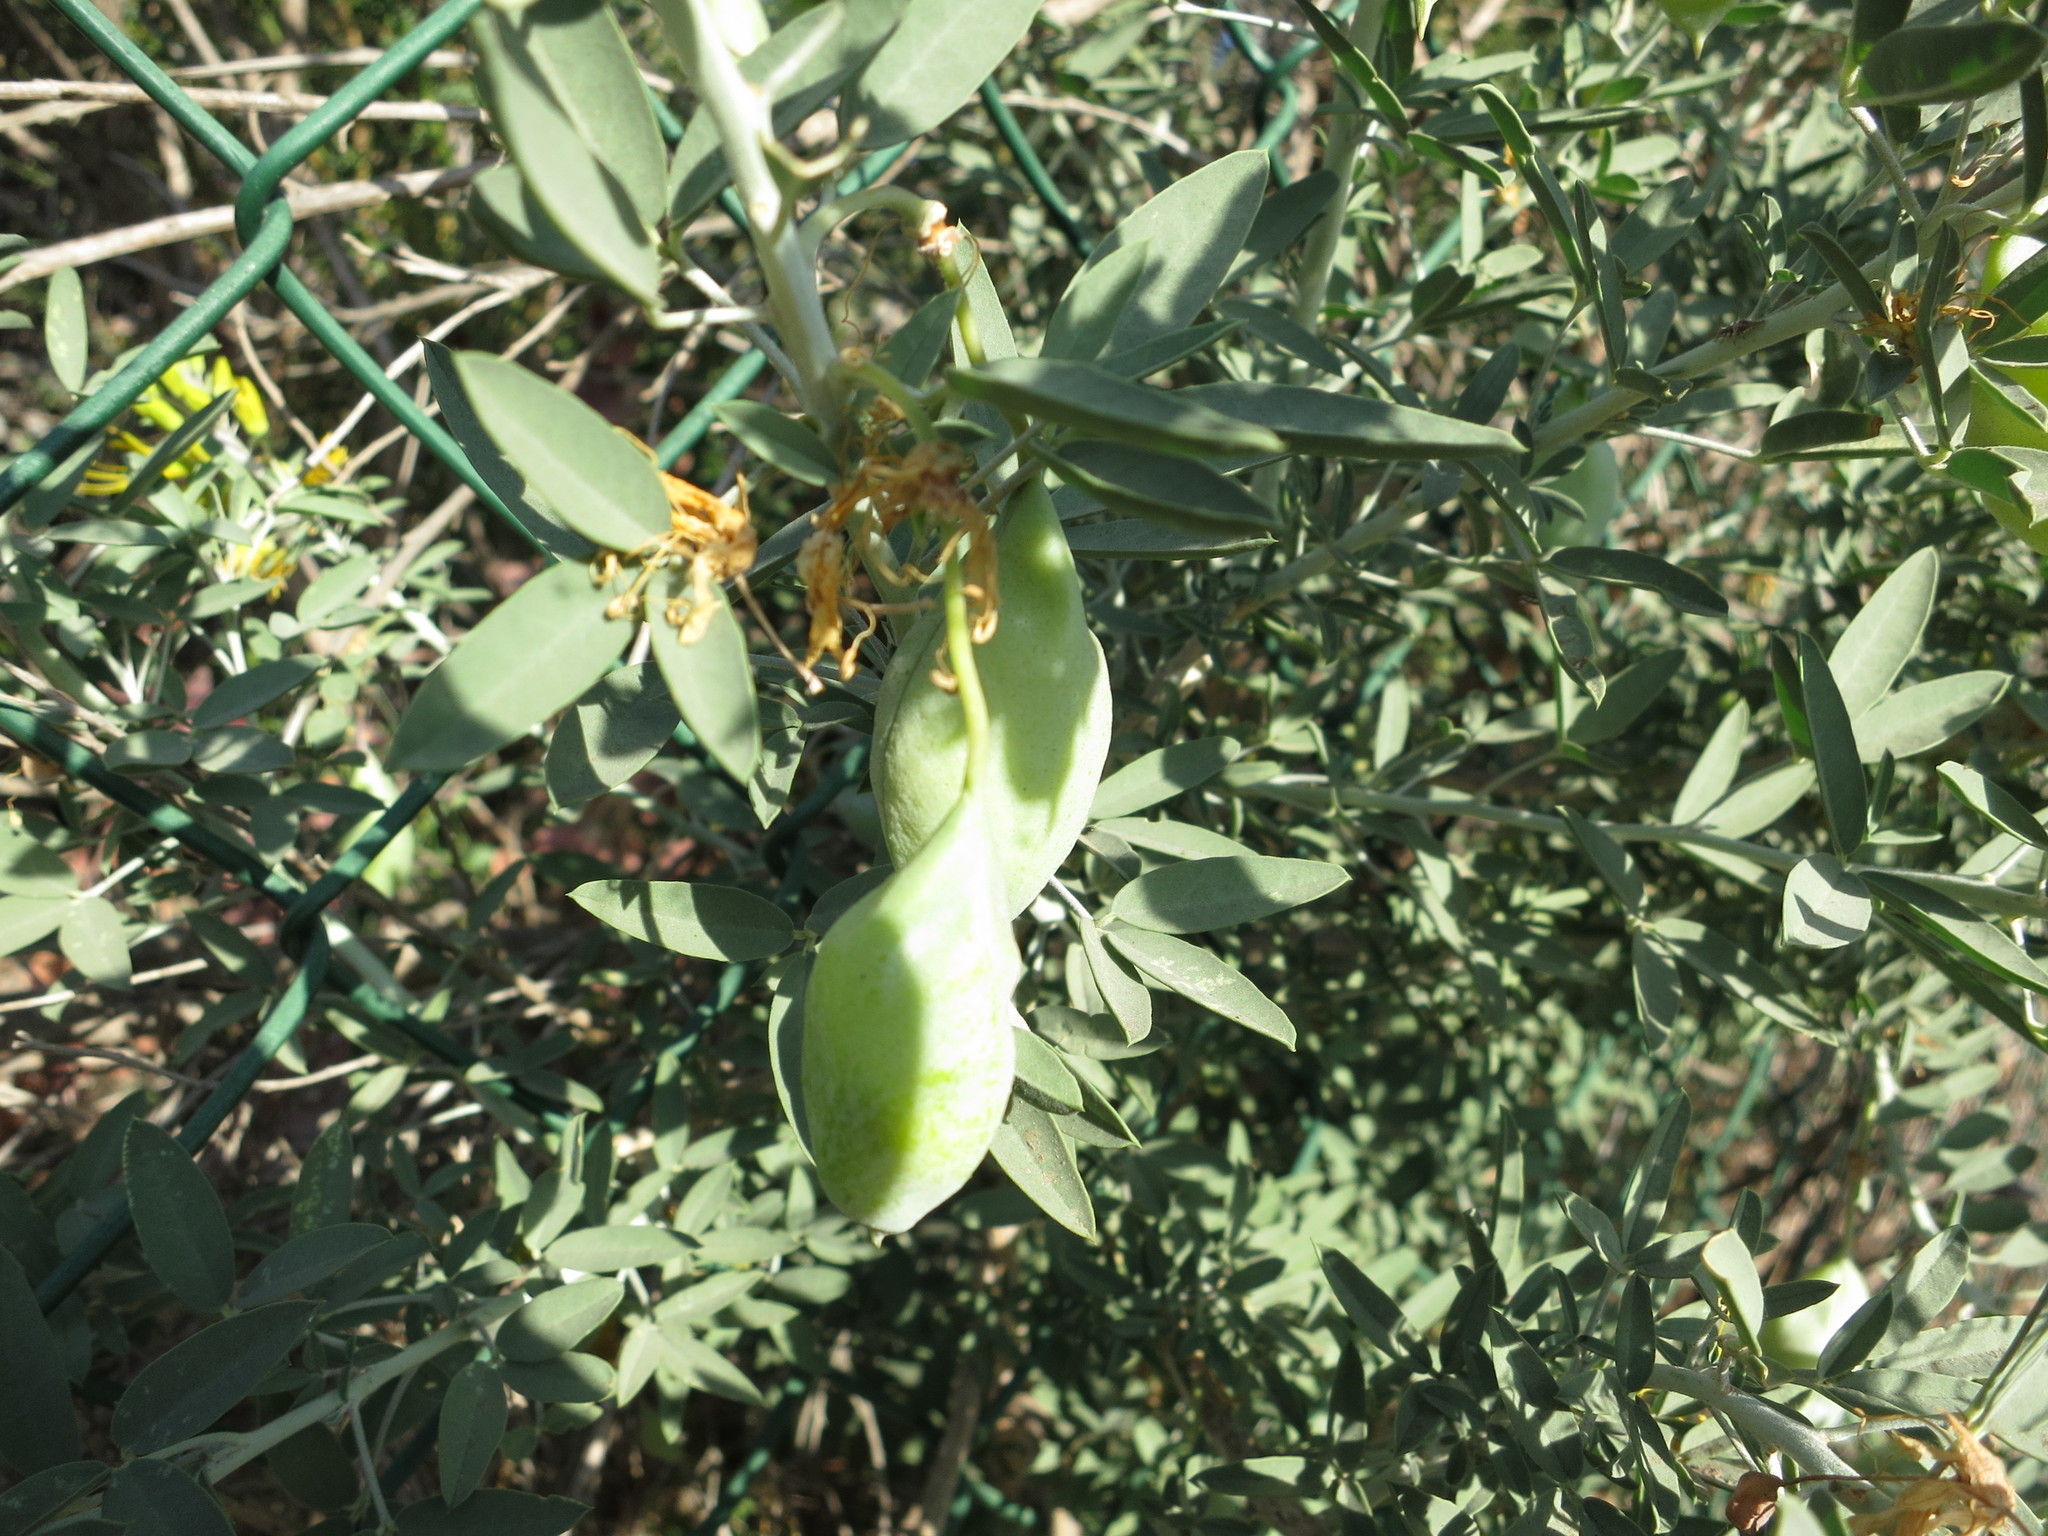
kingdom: Plantae
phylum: Tracheophyta
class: Magnoliopsida
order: Brassicales
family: Cleomaceae
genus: Cleomella
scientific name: Cleomella arborea
